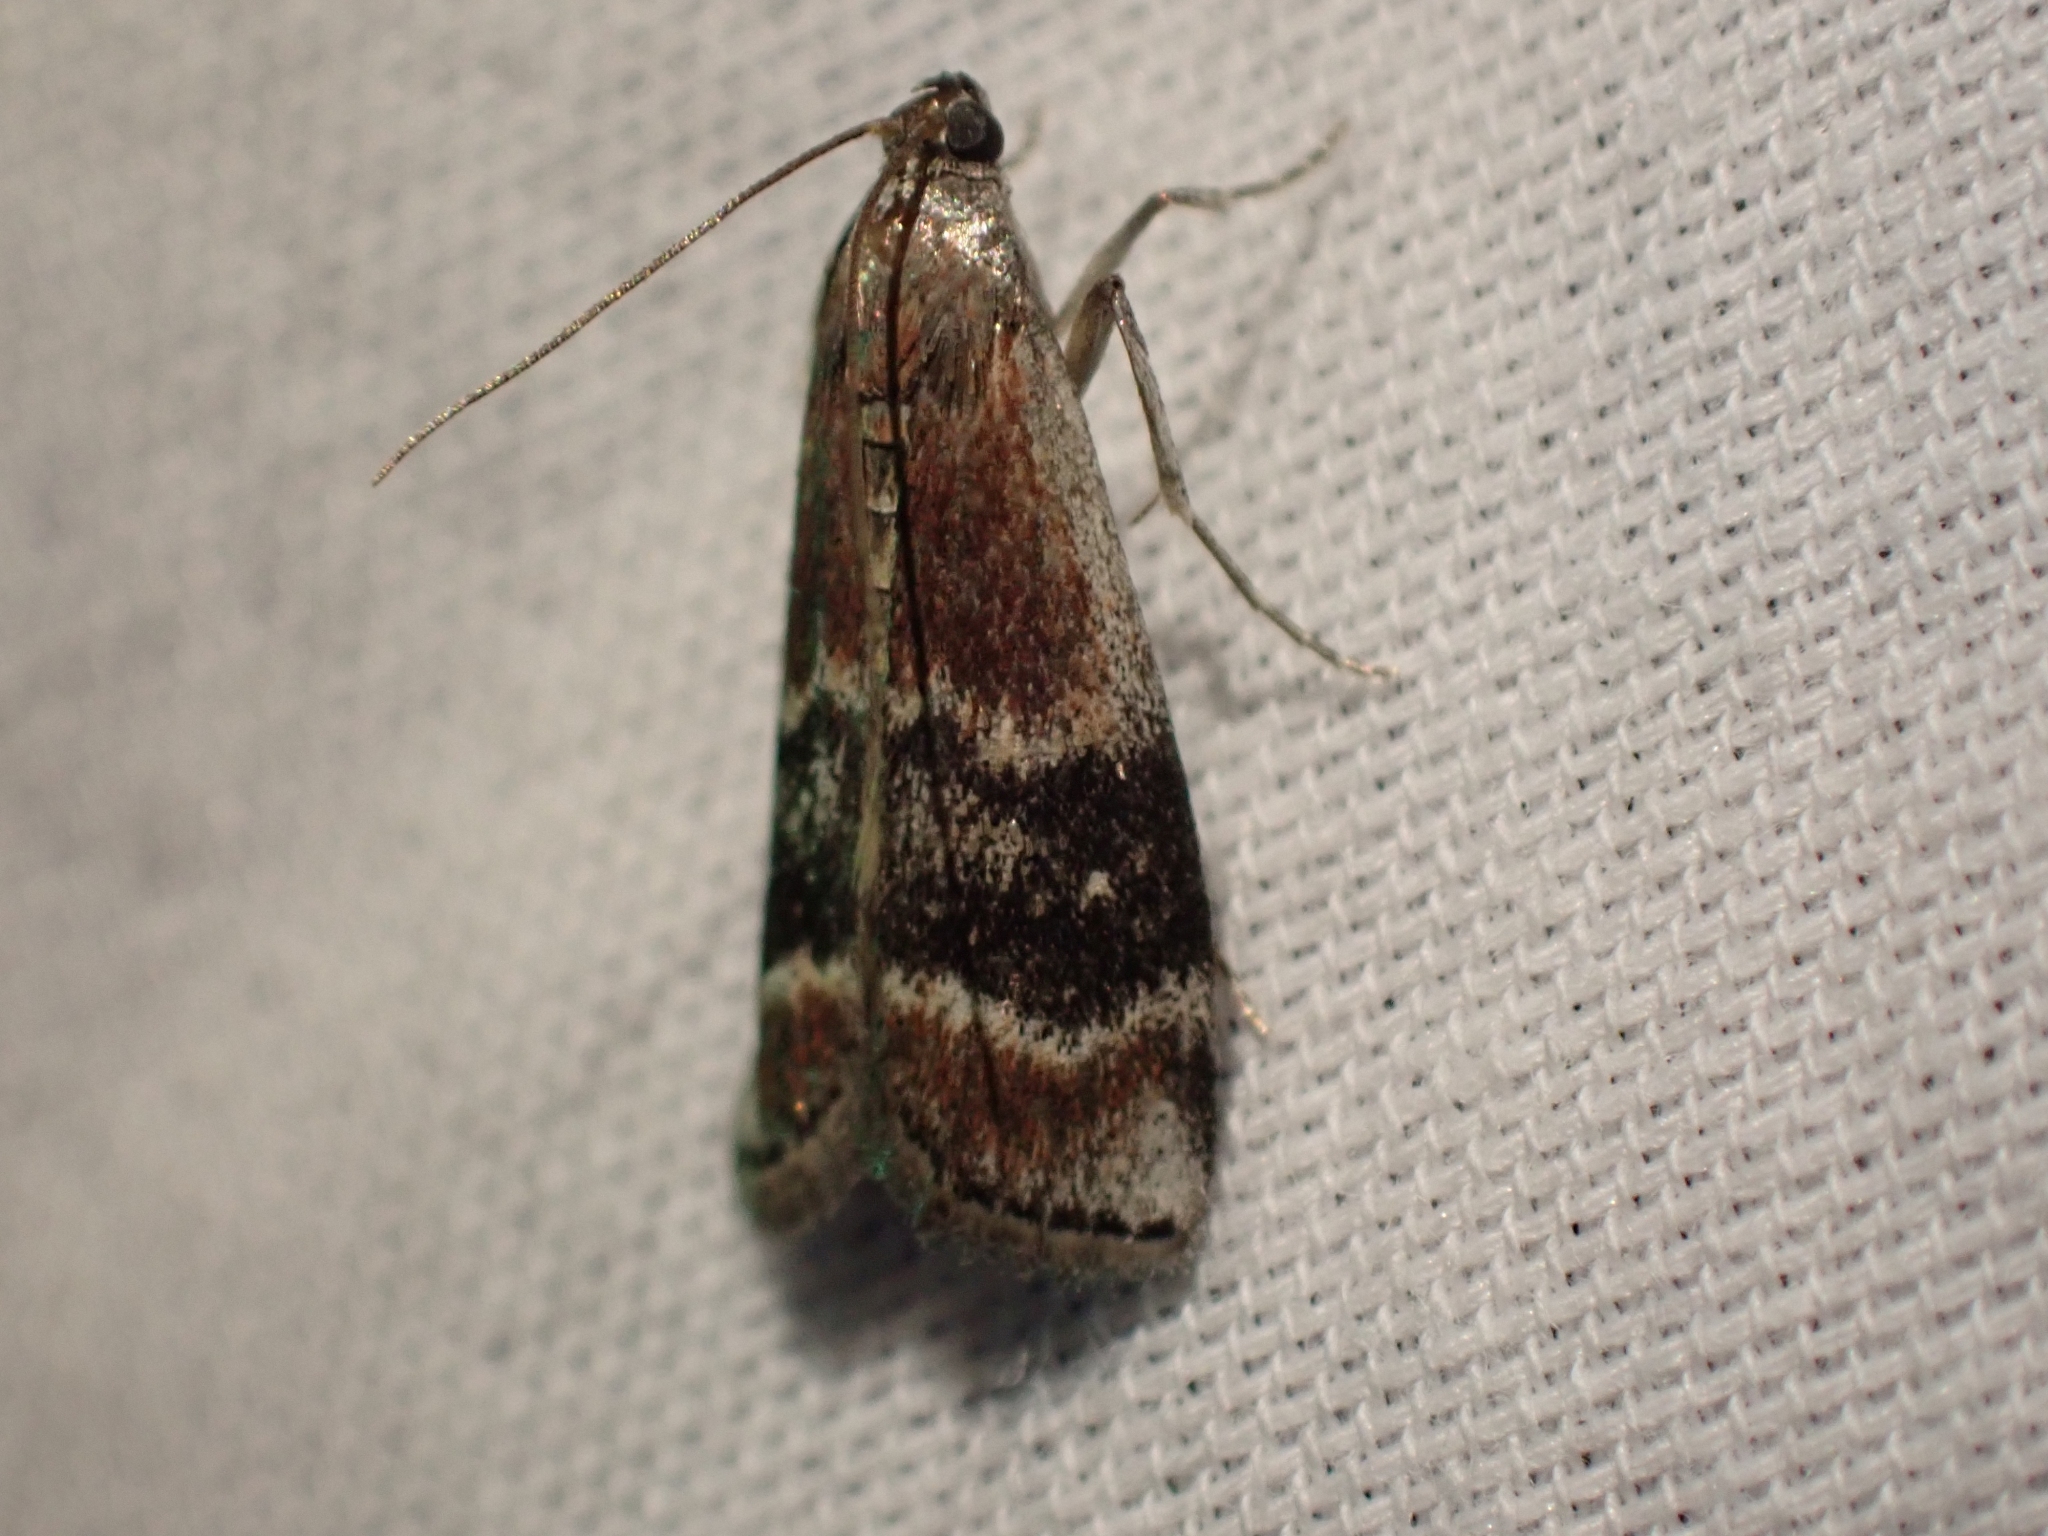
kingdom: Animalia
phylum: Arthropoda
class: Insecta
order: Lepidoptera
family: Pyralidae
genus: Euzophera
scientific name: Euzophera semifuneralis
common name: American plum borer moth
